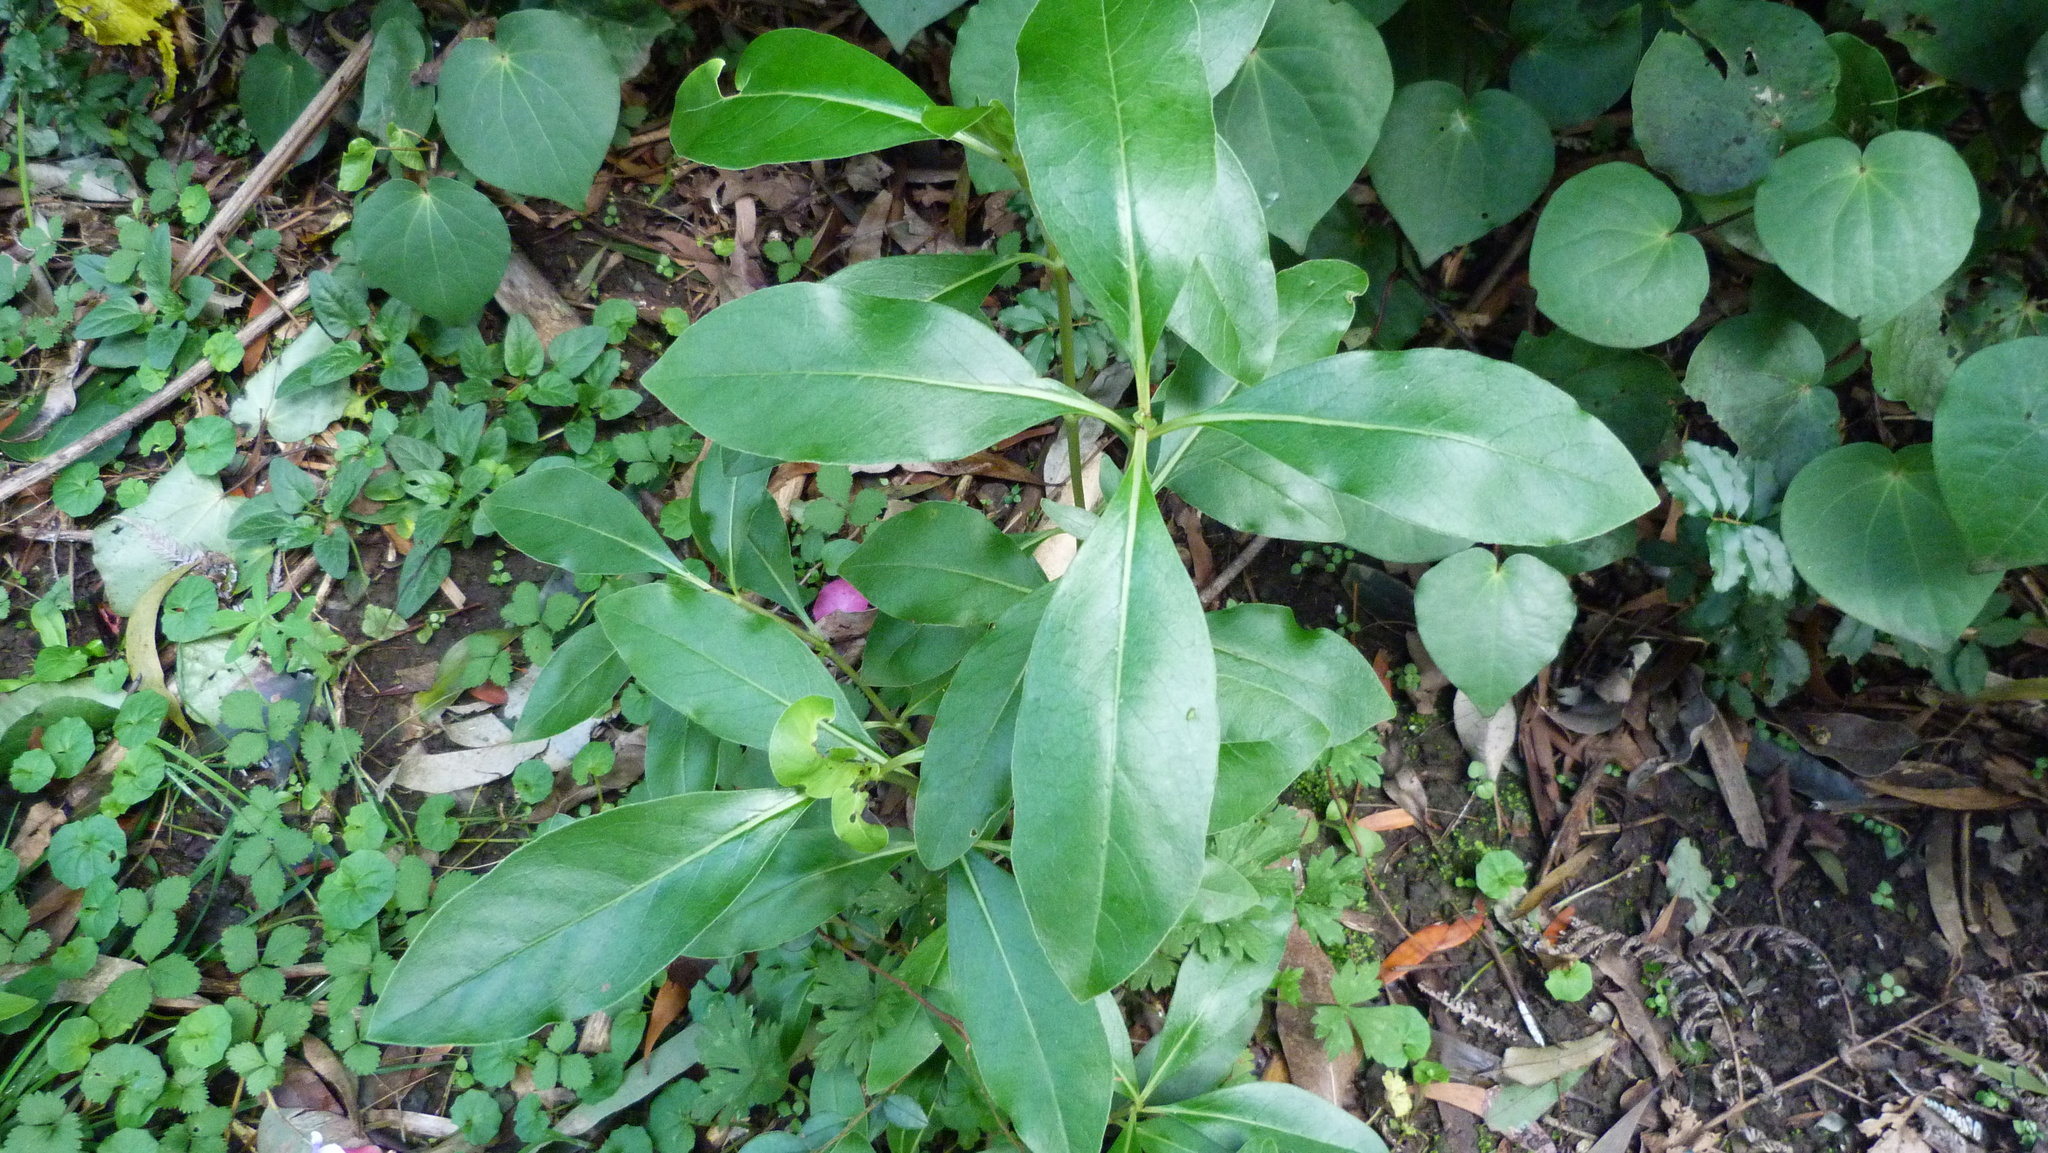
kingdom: Plantae
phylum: Tracheophyta
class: Magnoliopsida
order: Gentianales
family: Rubiaceae
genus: Coprosma
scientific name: Coprosma robusta
